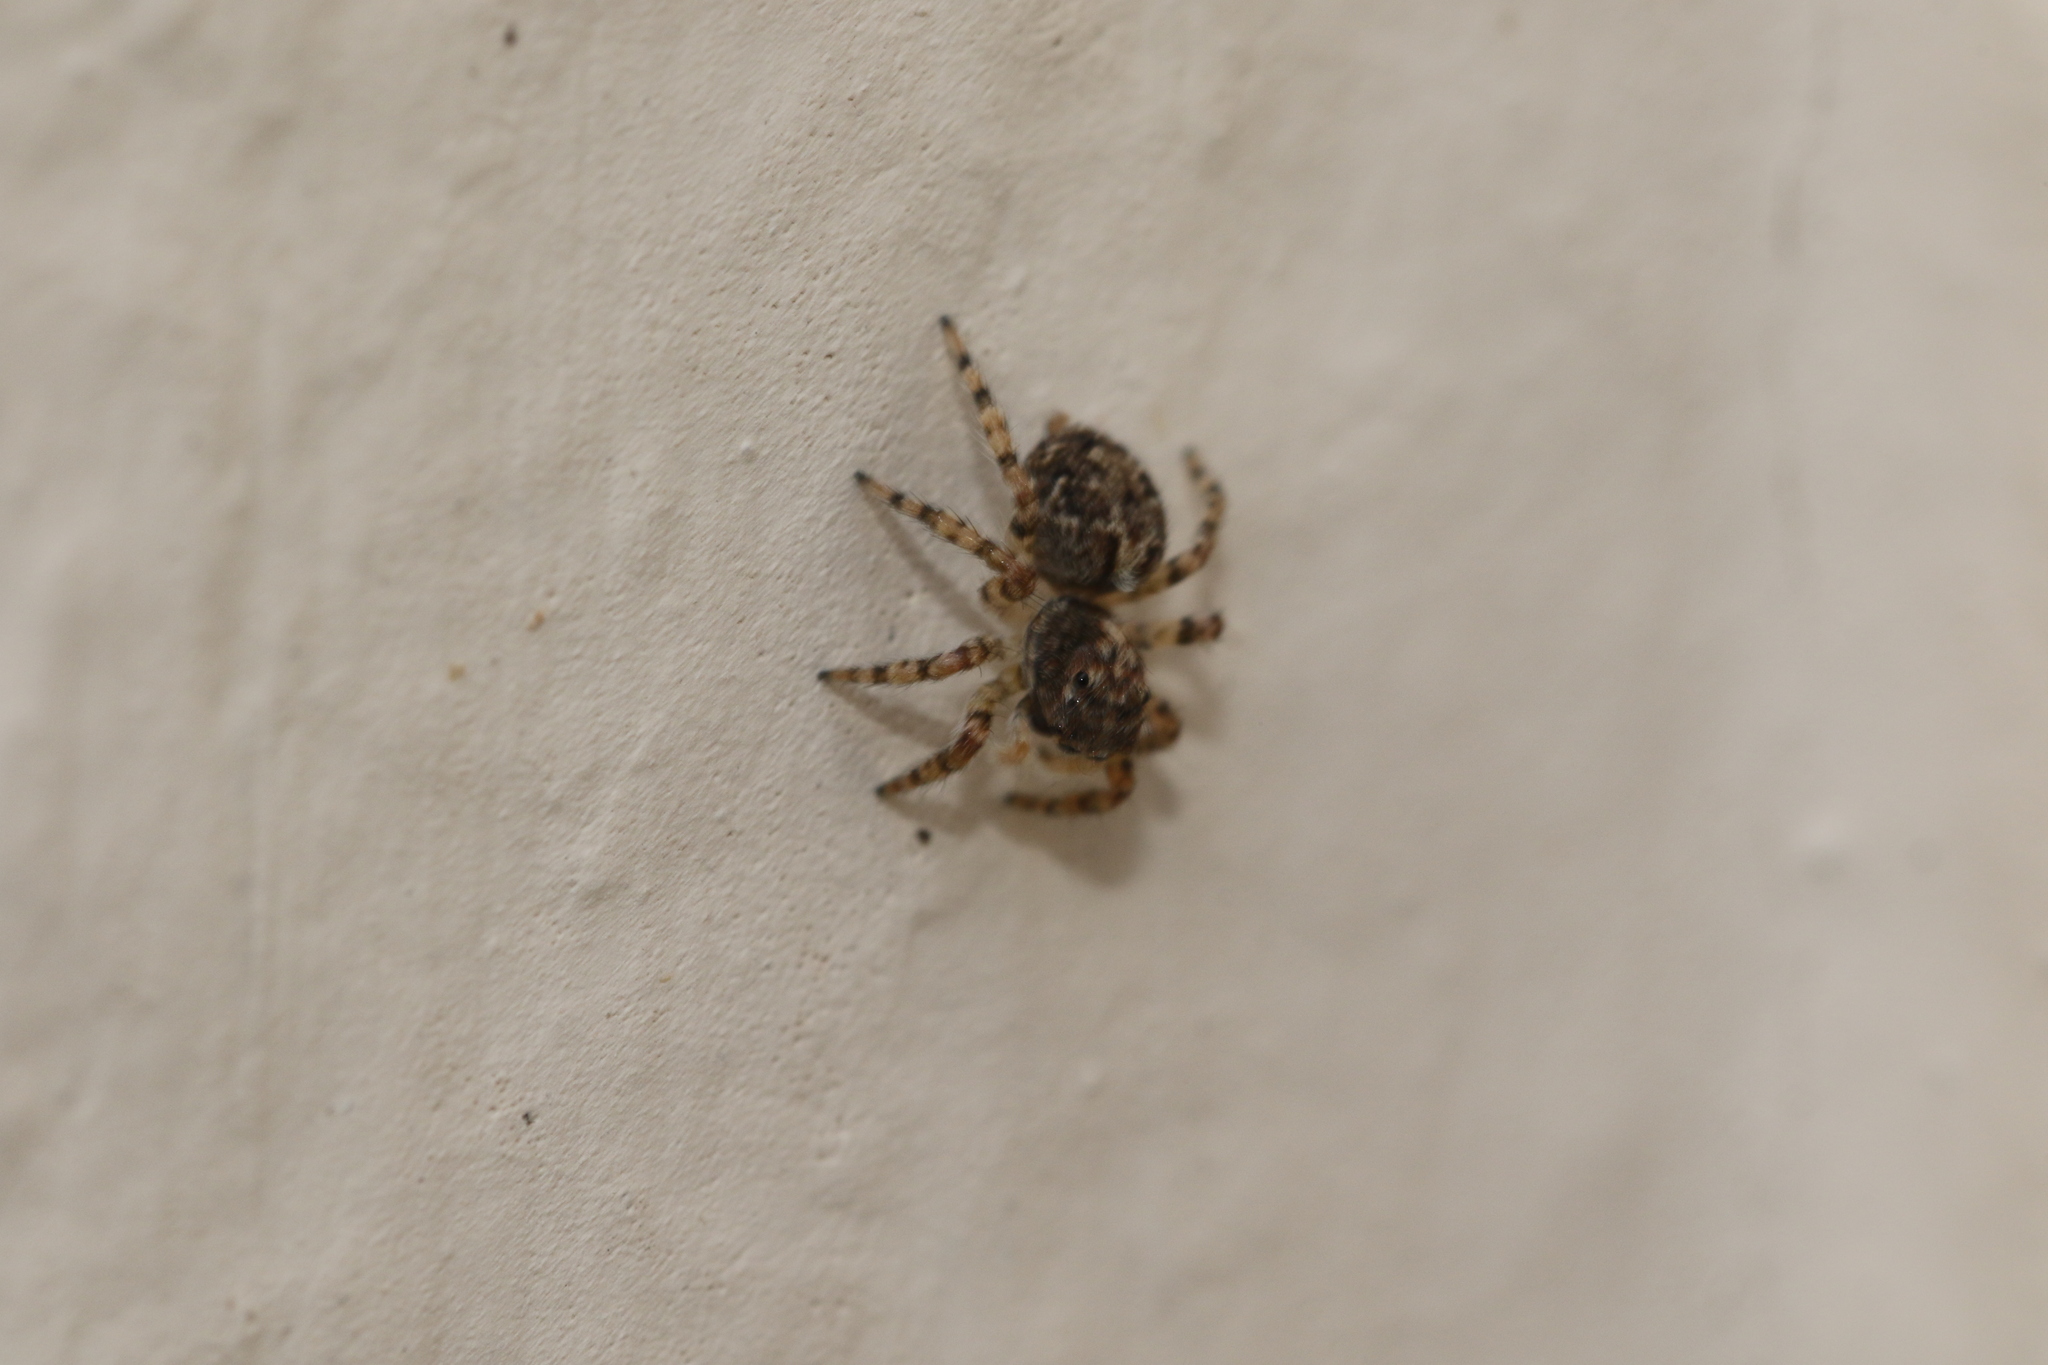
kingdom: Animalia
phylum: Arthropoda
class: Arachnida
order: Araneae
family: Salticidae
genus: Marma
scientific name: Marma nigritarsis
